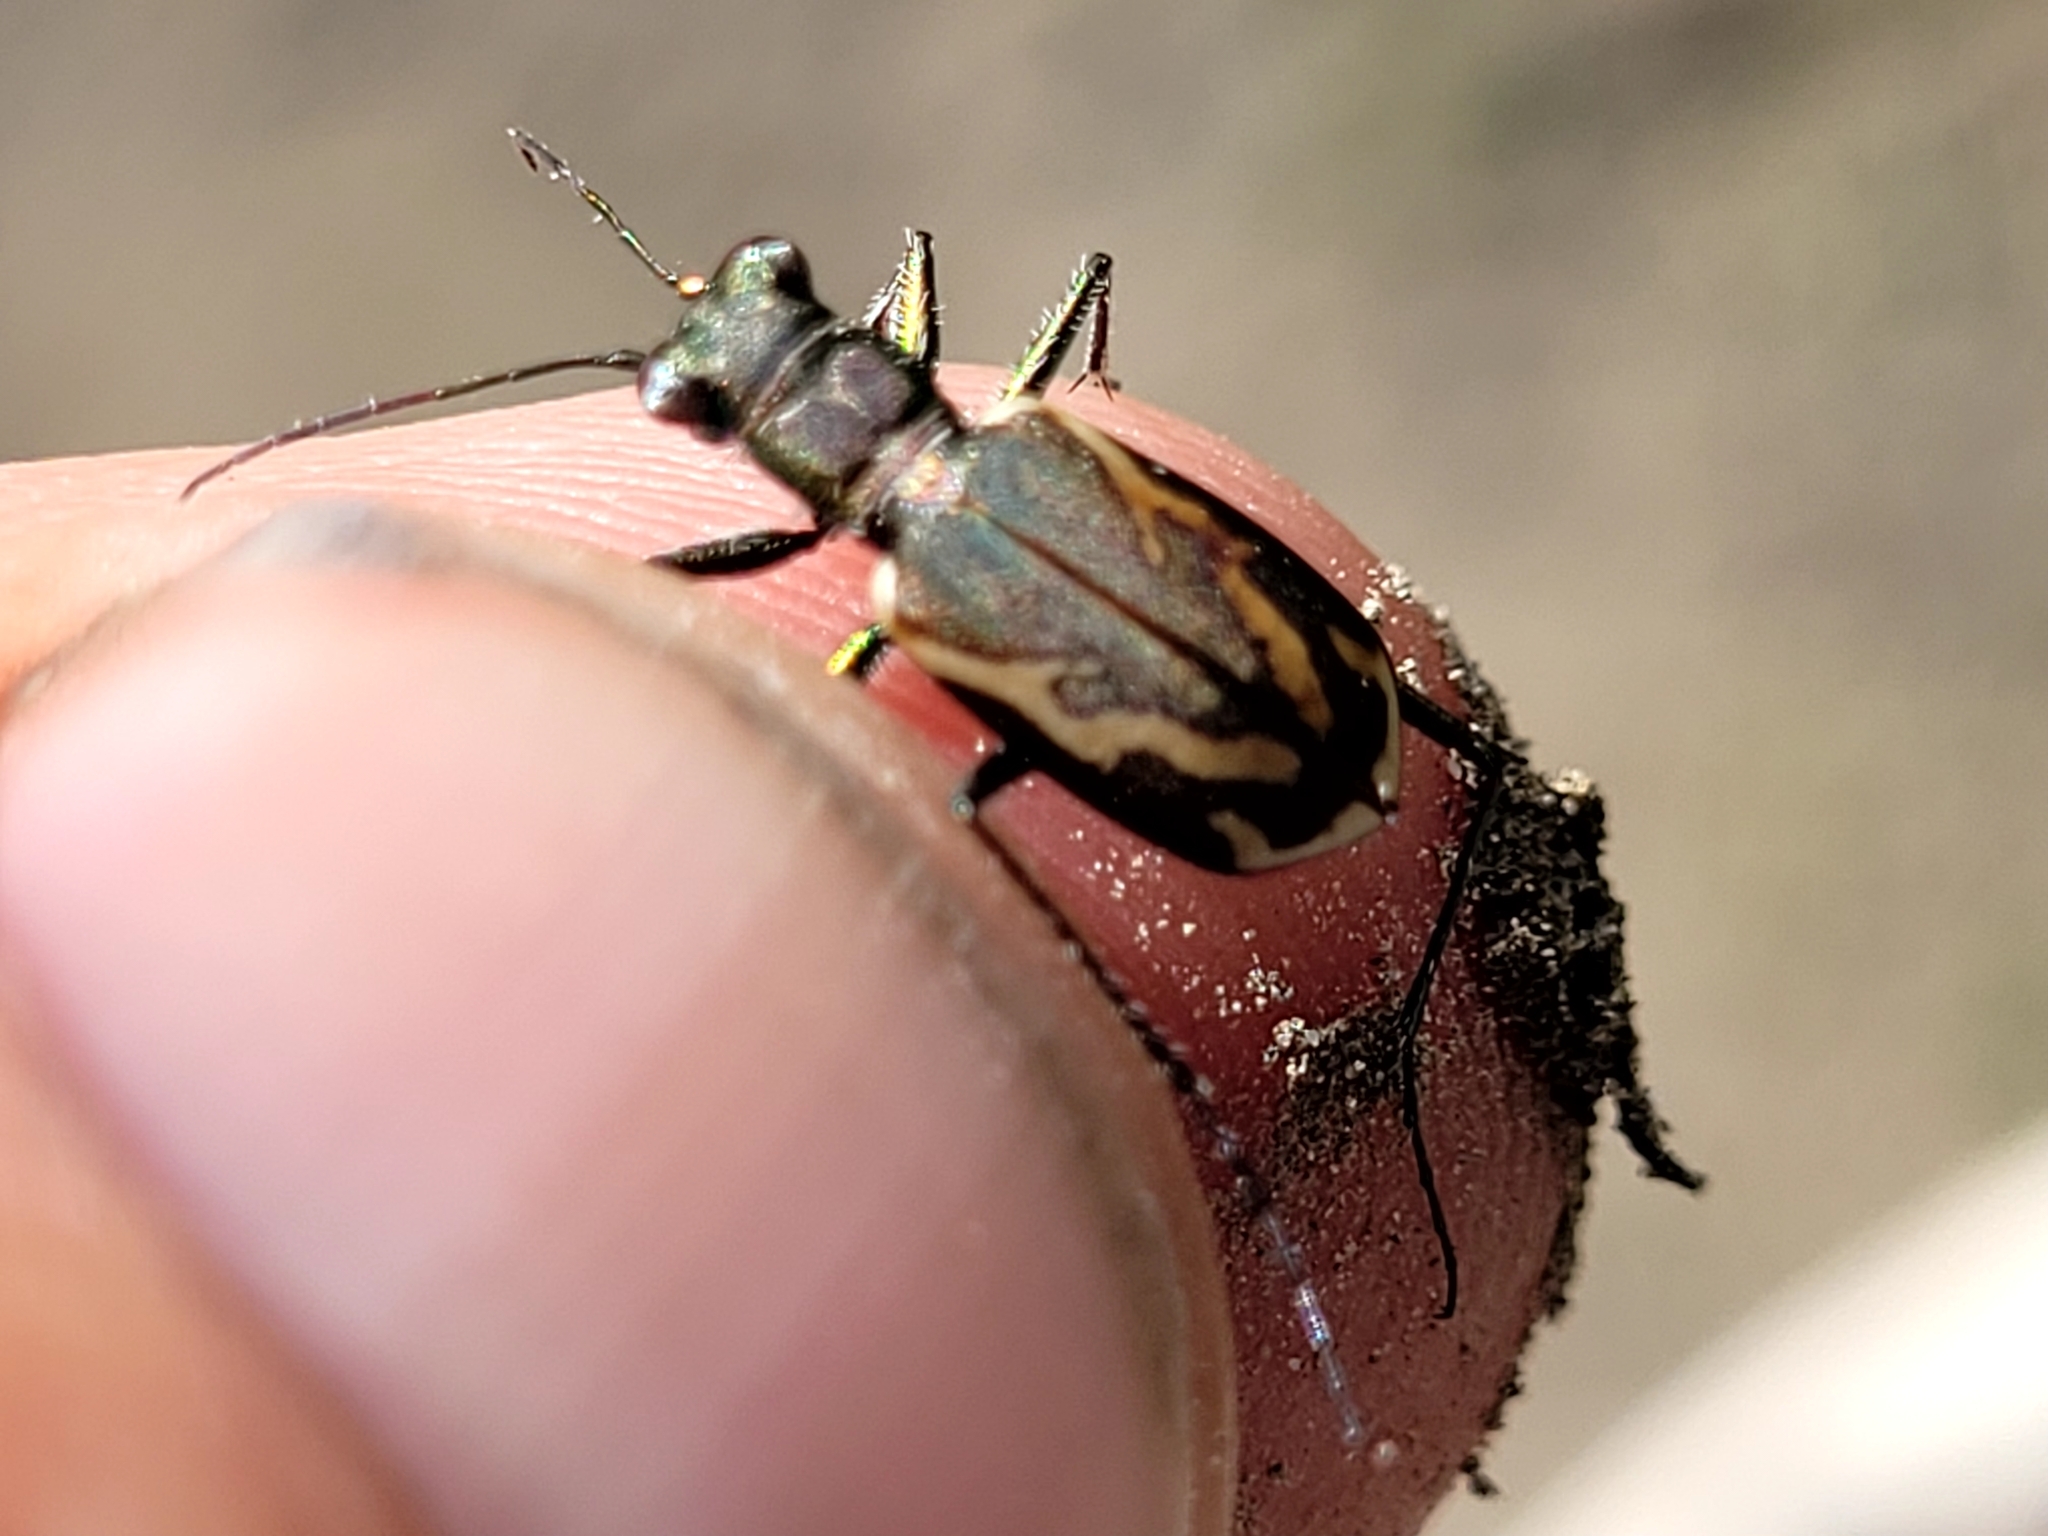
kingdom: Animalia
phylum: Arthropoda
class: Insecta
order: Coleoptera
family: Carabidae
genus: Cylindera
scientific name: Cylindera terricola
